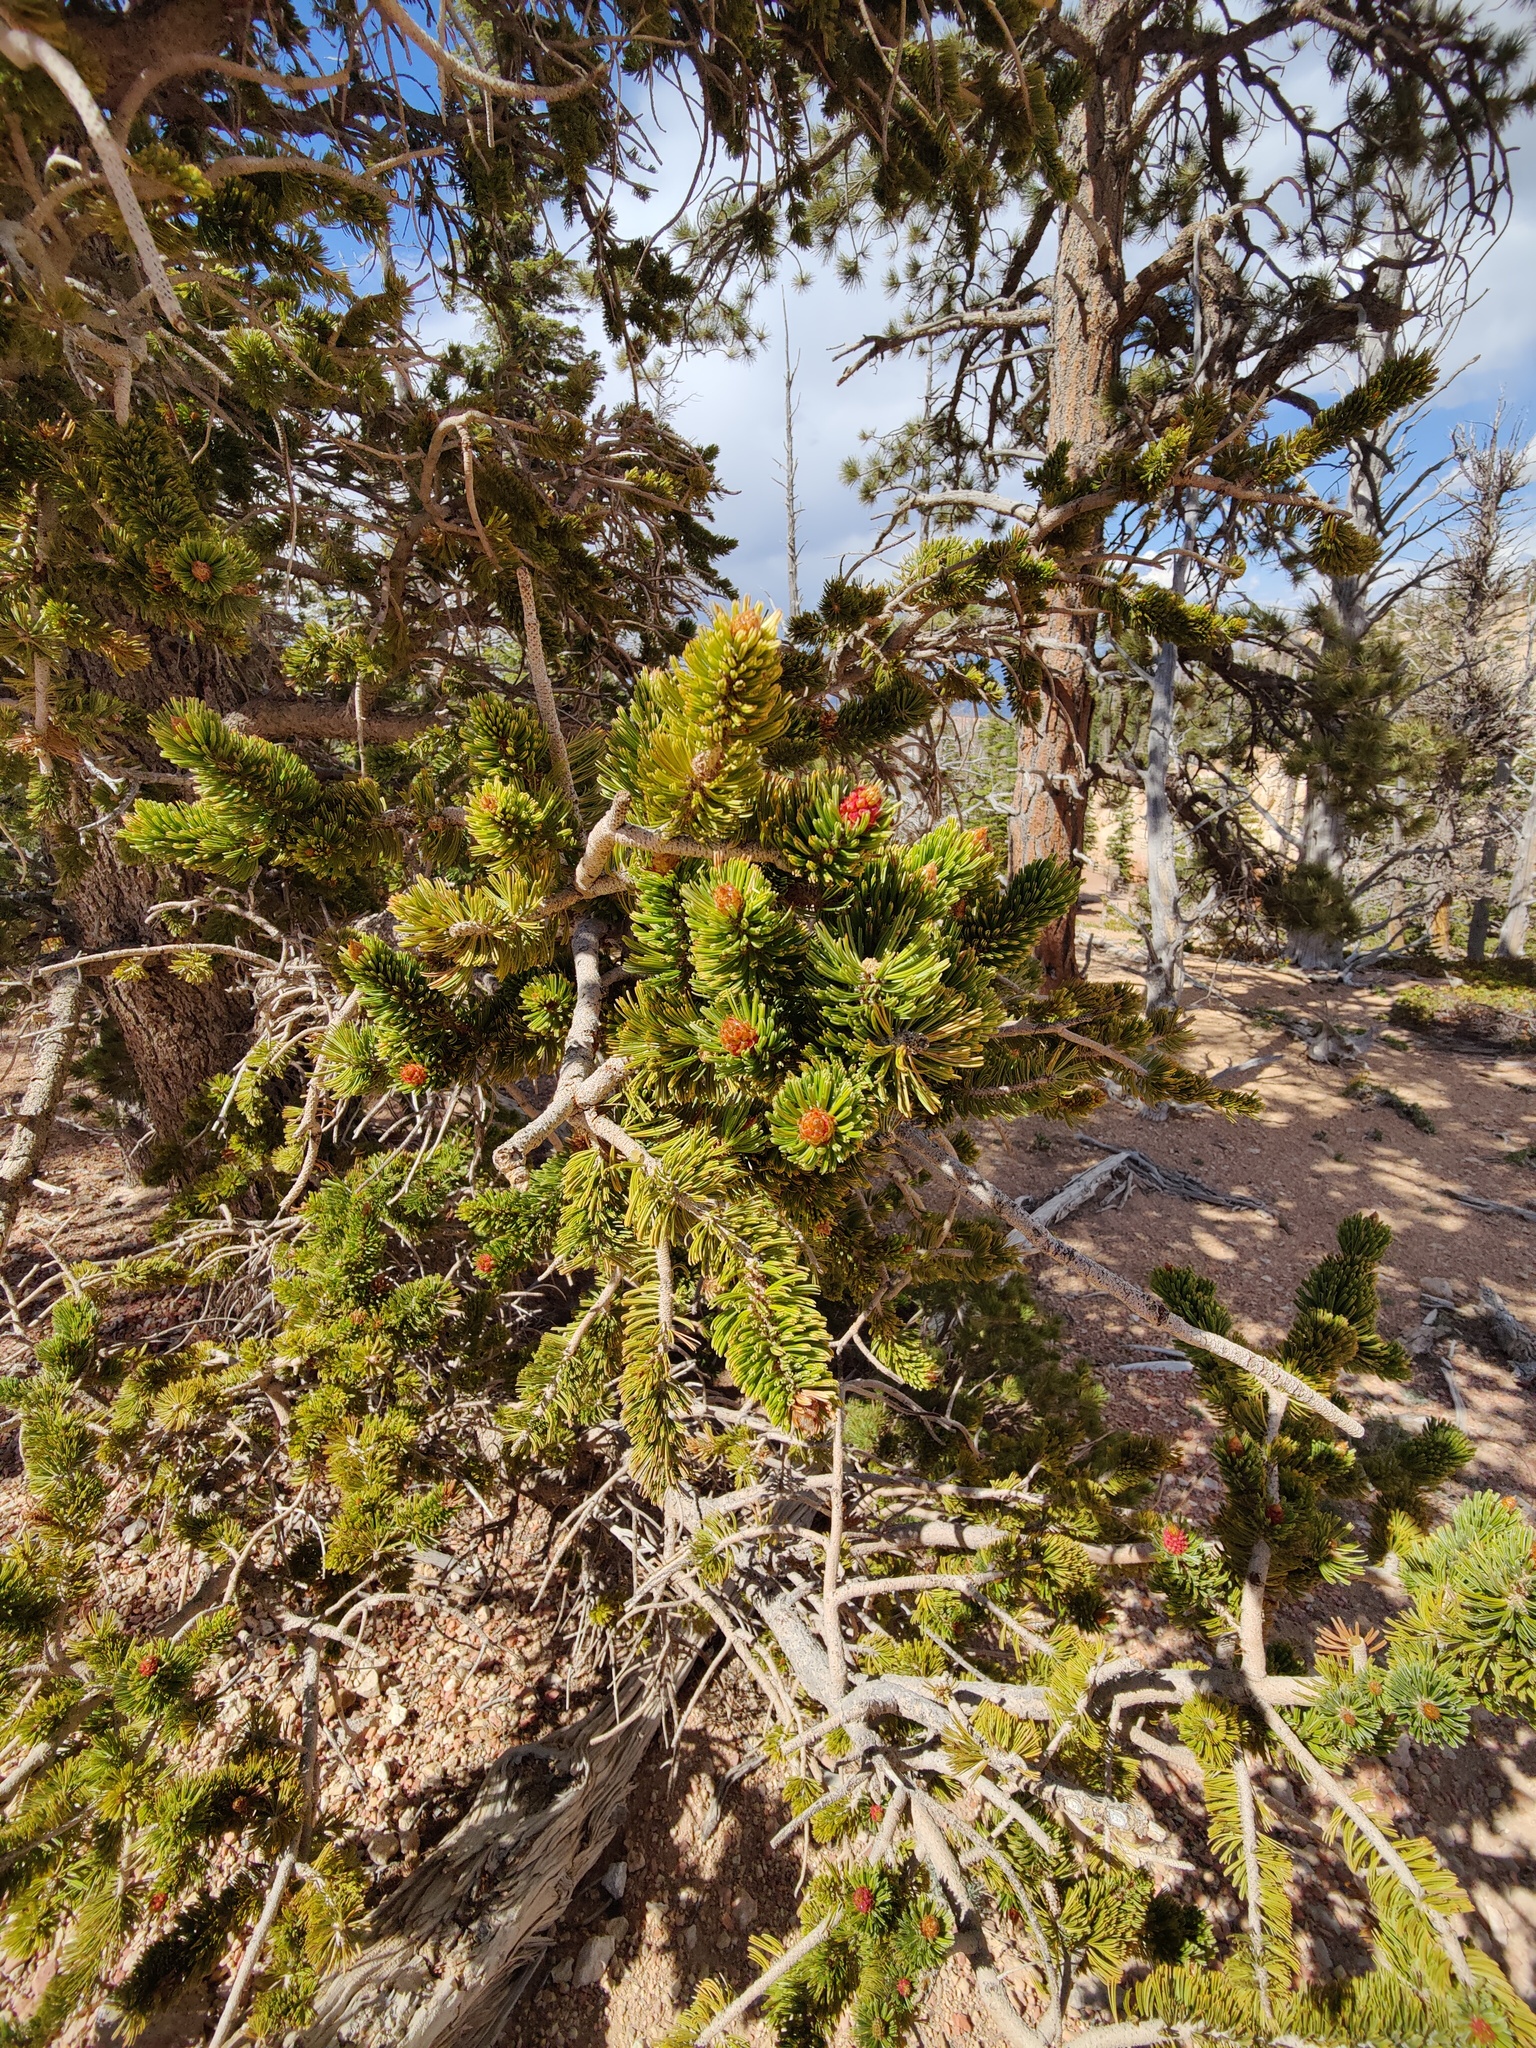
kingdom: Plantae
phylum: Tracheophyta
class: Pinopsida
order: Pinales
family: Pinaceae
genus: Pinus
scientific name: Pinus longaeva
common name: Intermountain bristlecone pine
